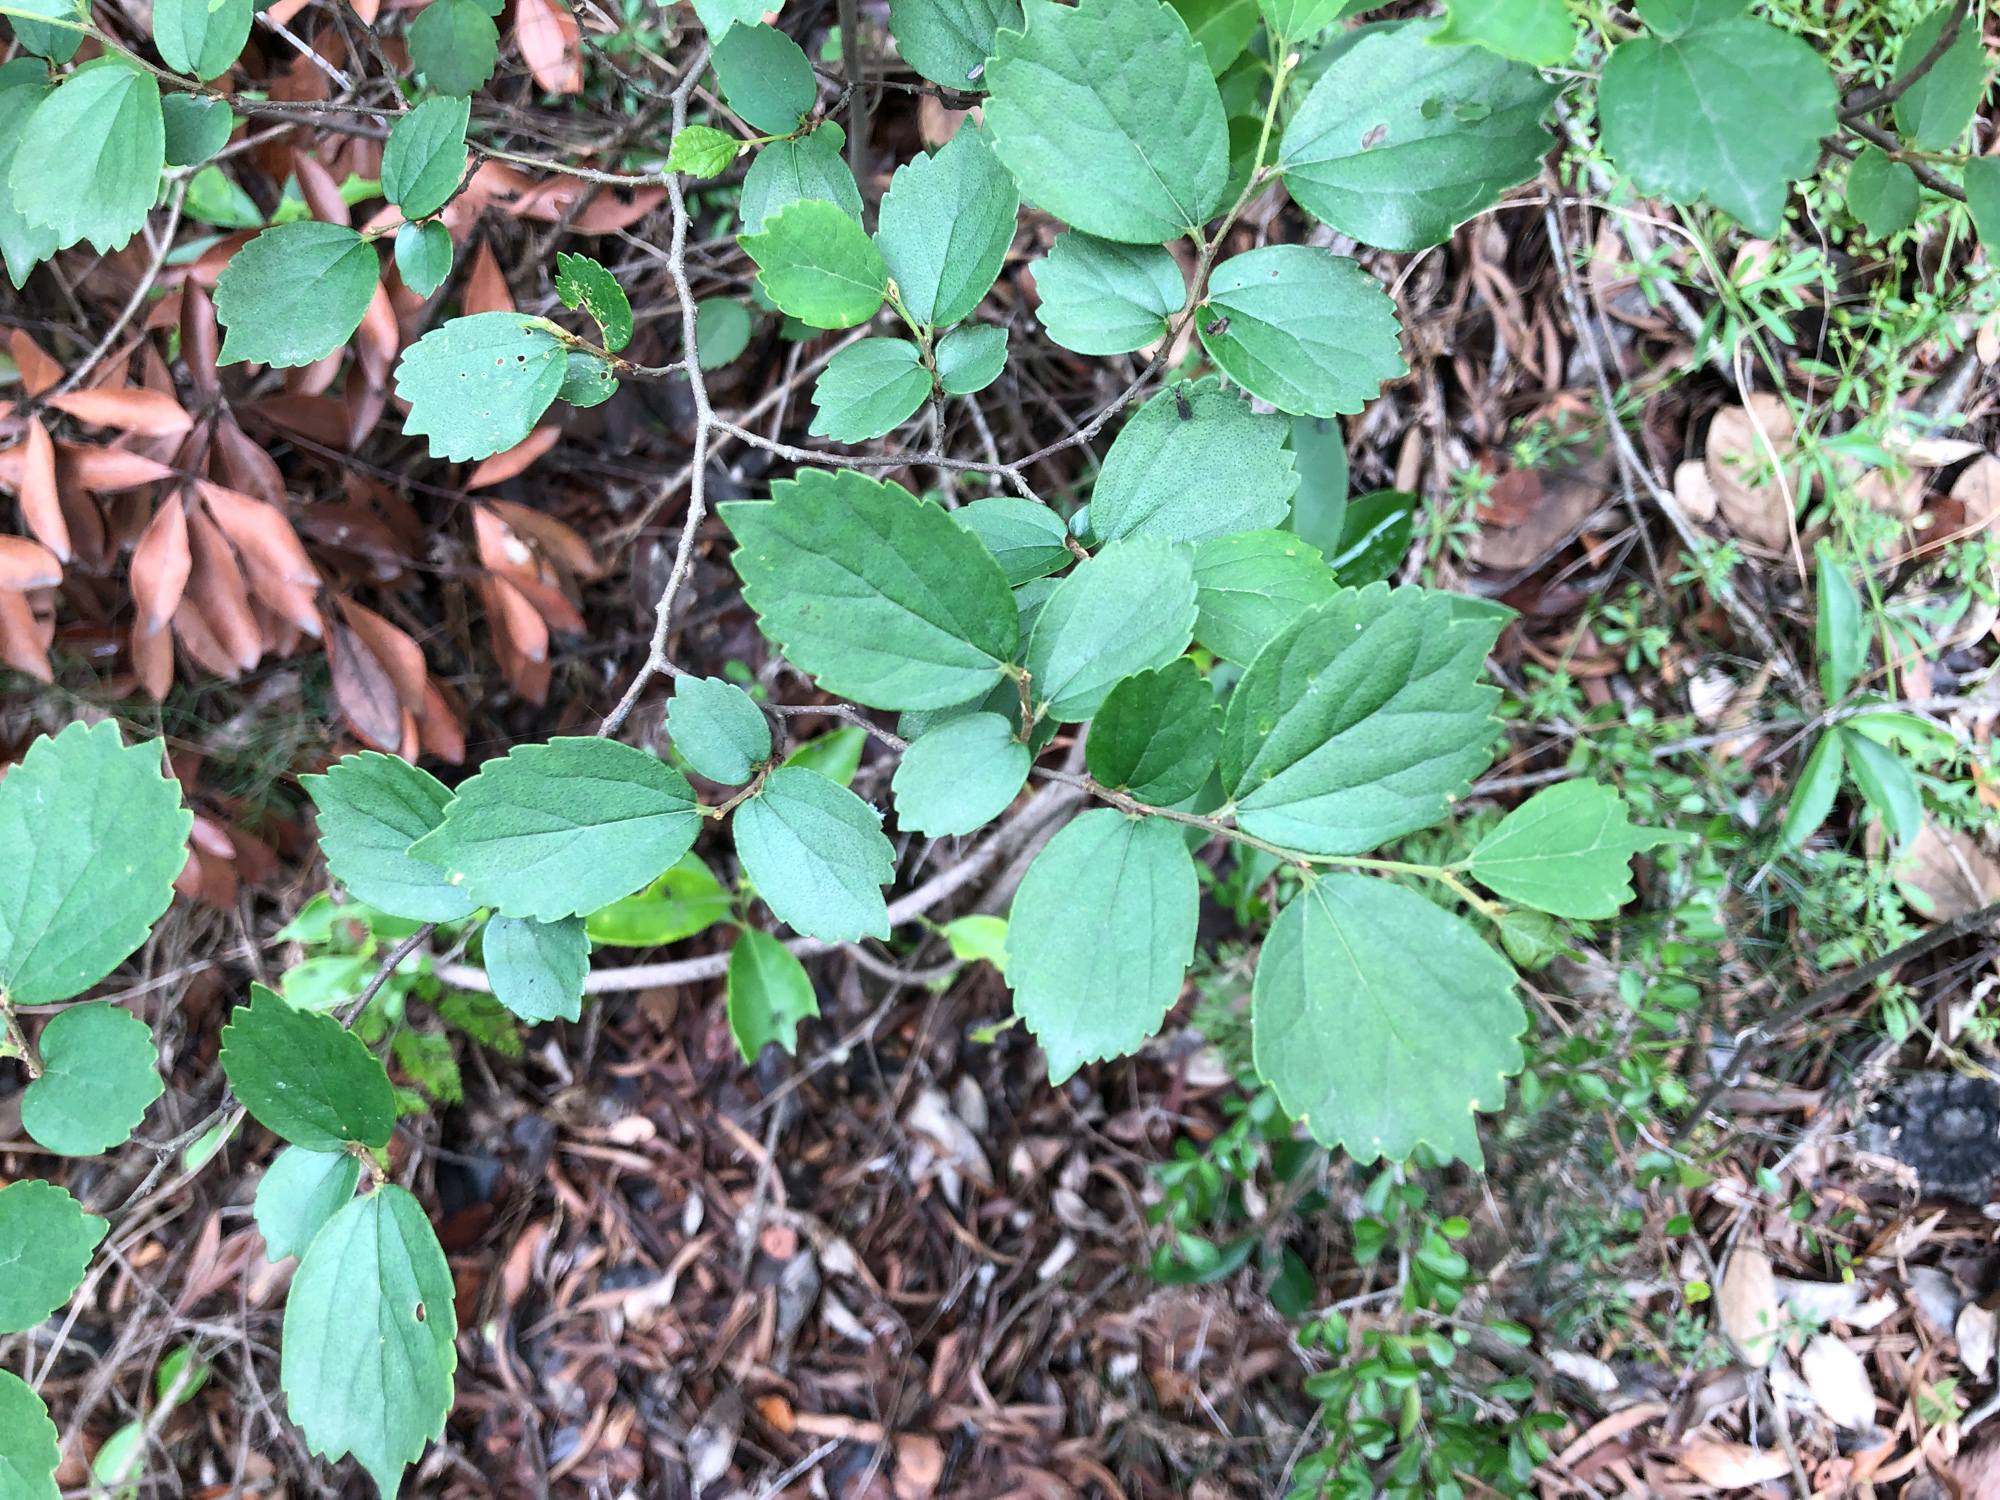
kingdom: Plantae
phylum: Tracheophyta
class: Magnoliopsida
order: Rosales
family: Cannabaceae
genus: Celtis
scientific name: Celtis biondii
